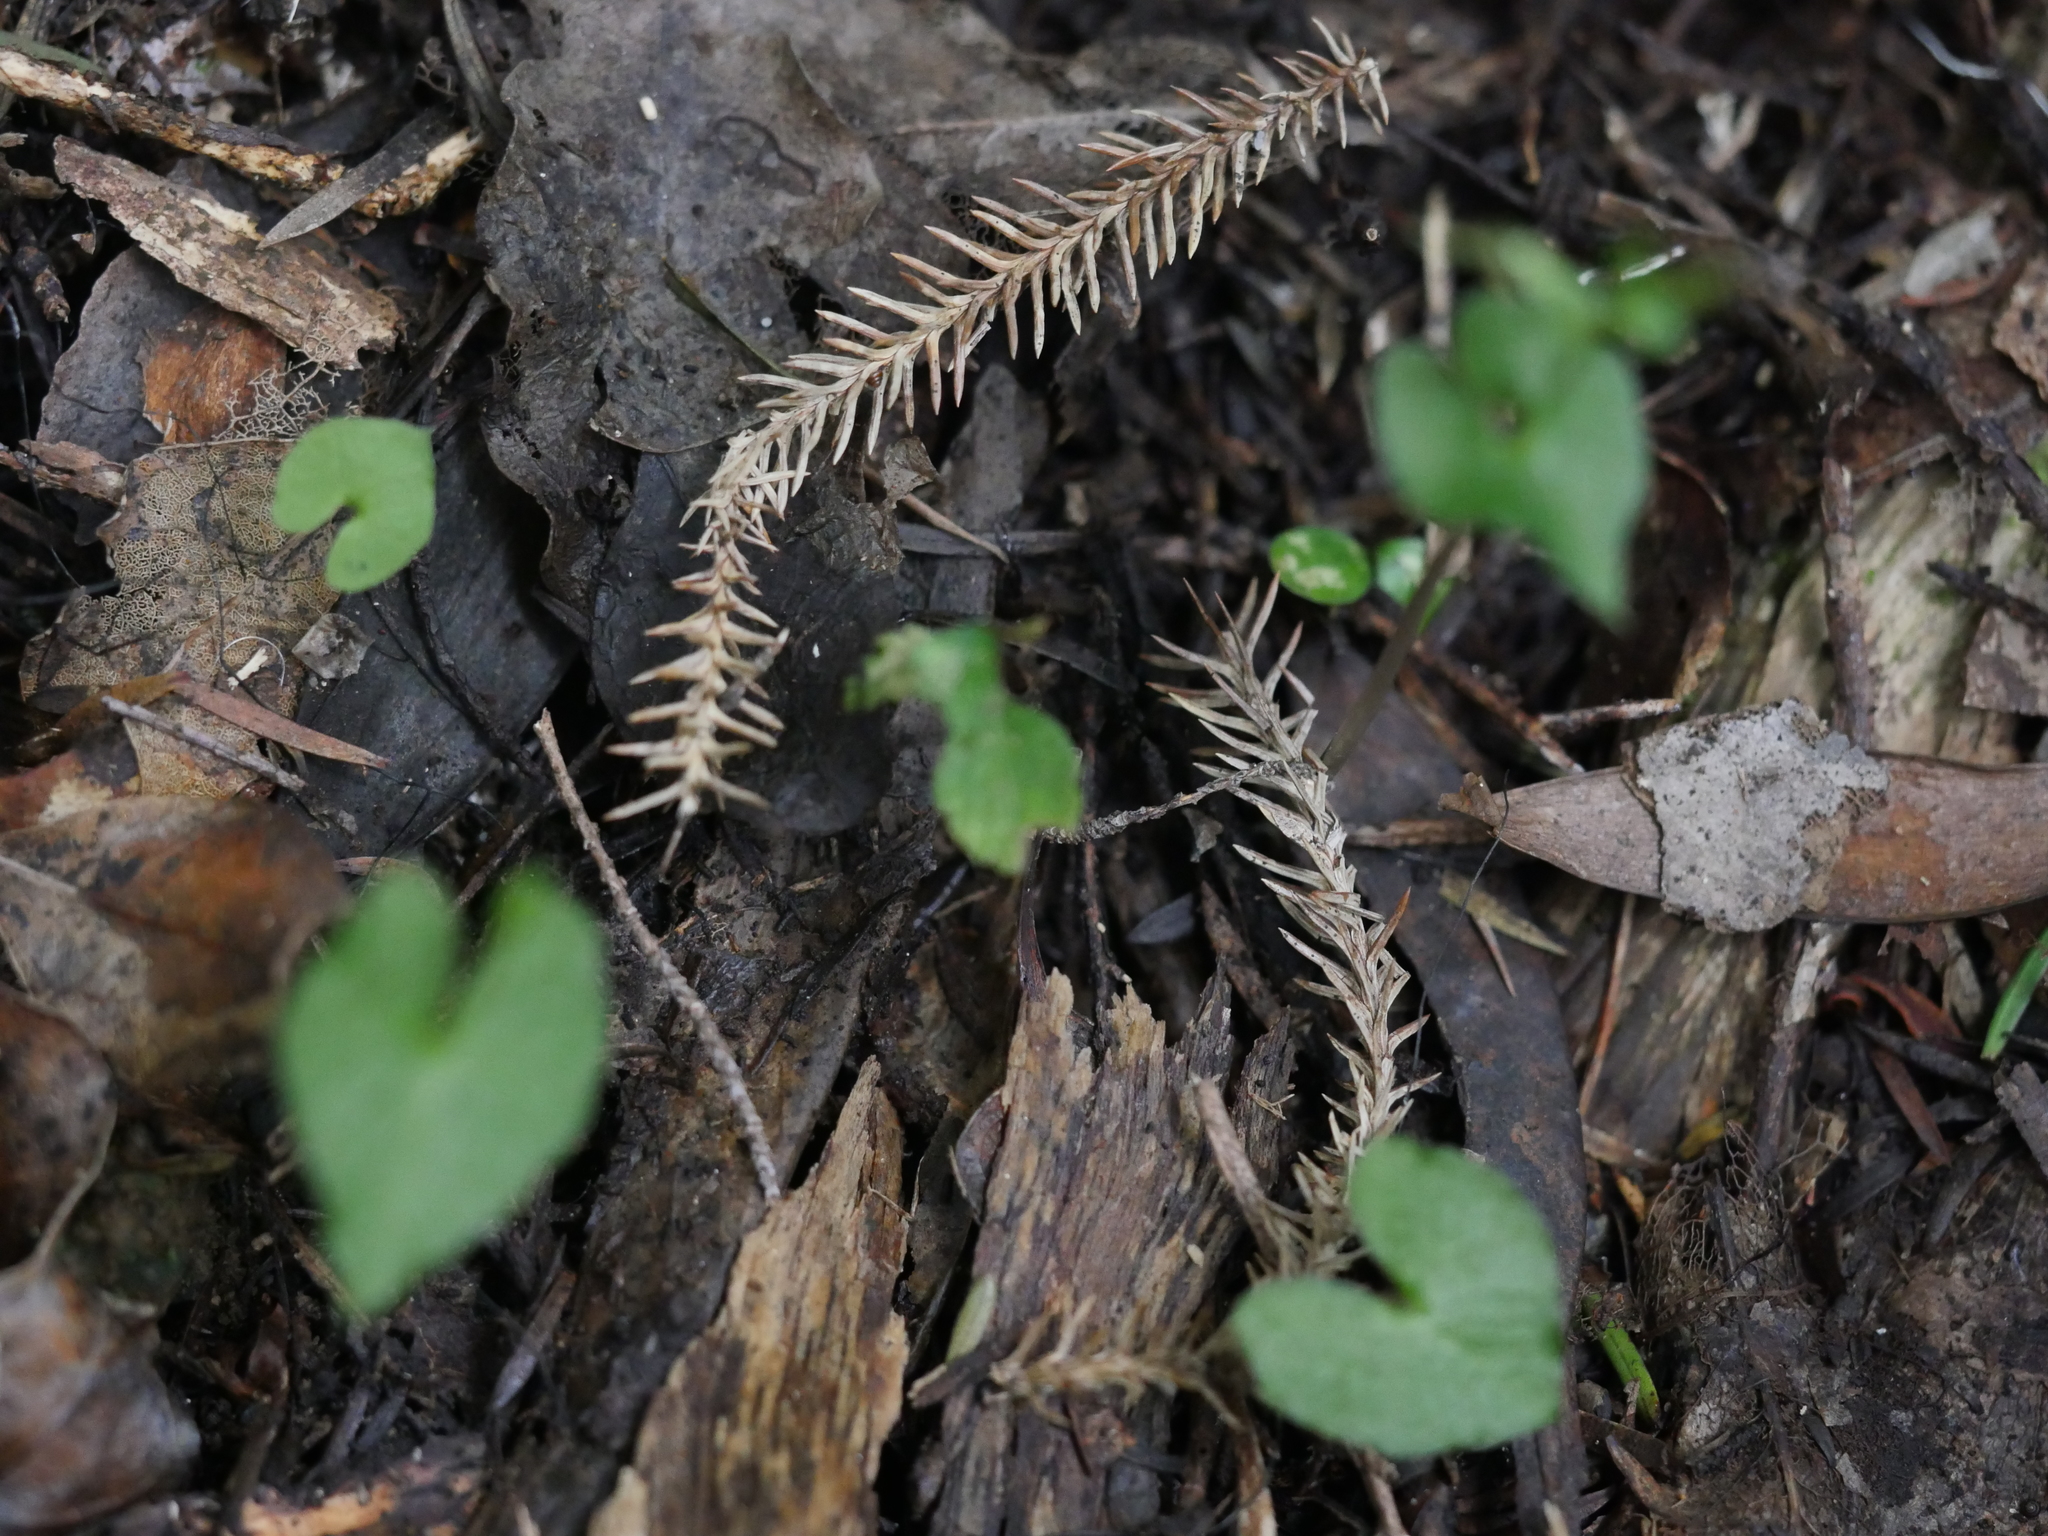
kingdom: Plantae
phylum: Tracheophyta
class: Liliopsida
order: Asparagales
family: Orchidaceae
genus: Acianthus
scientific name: Acianthus sinclairii
